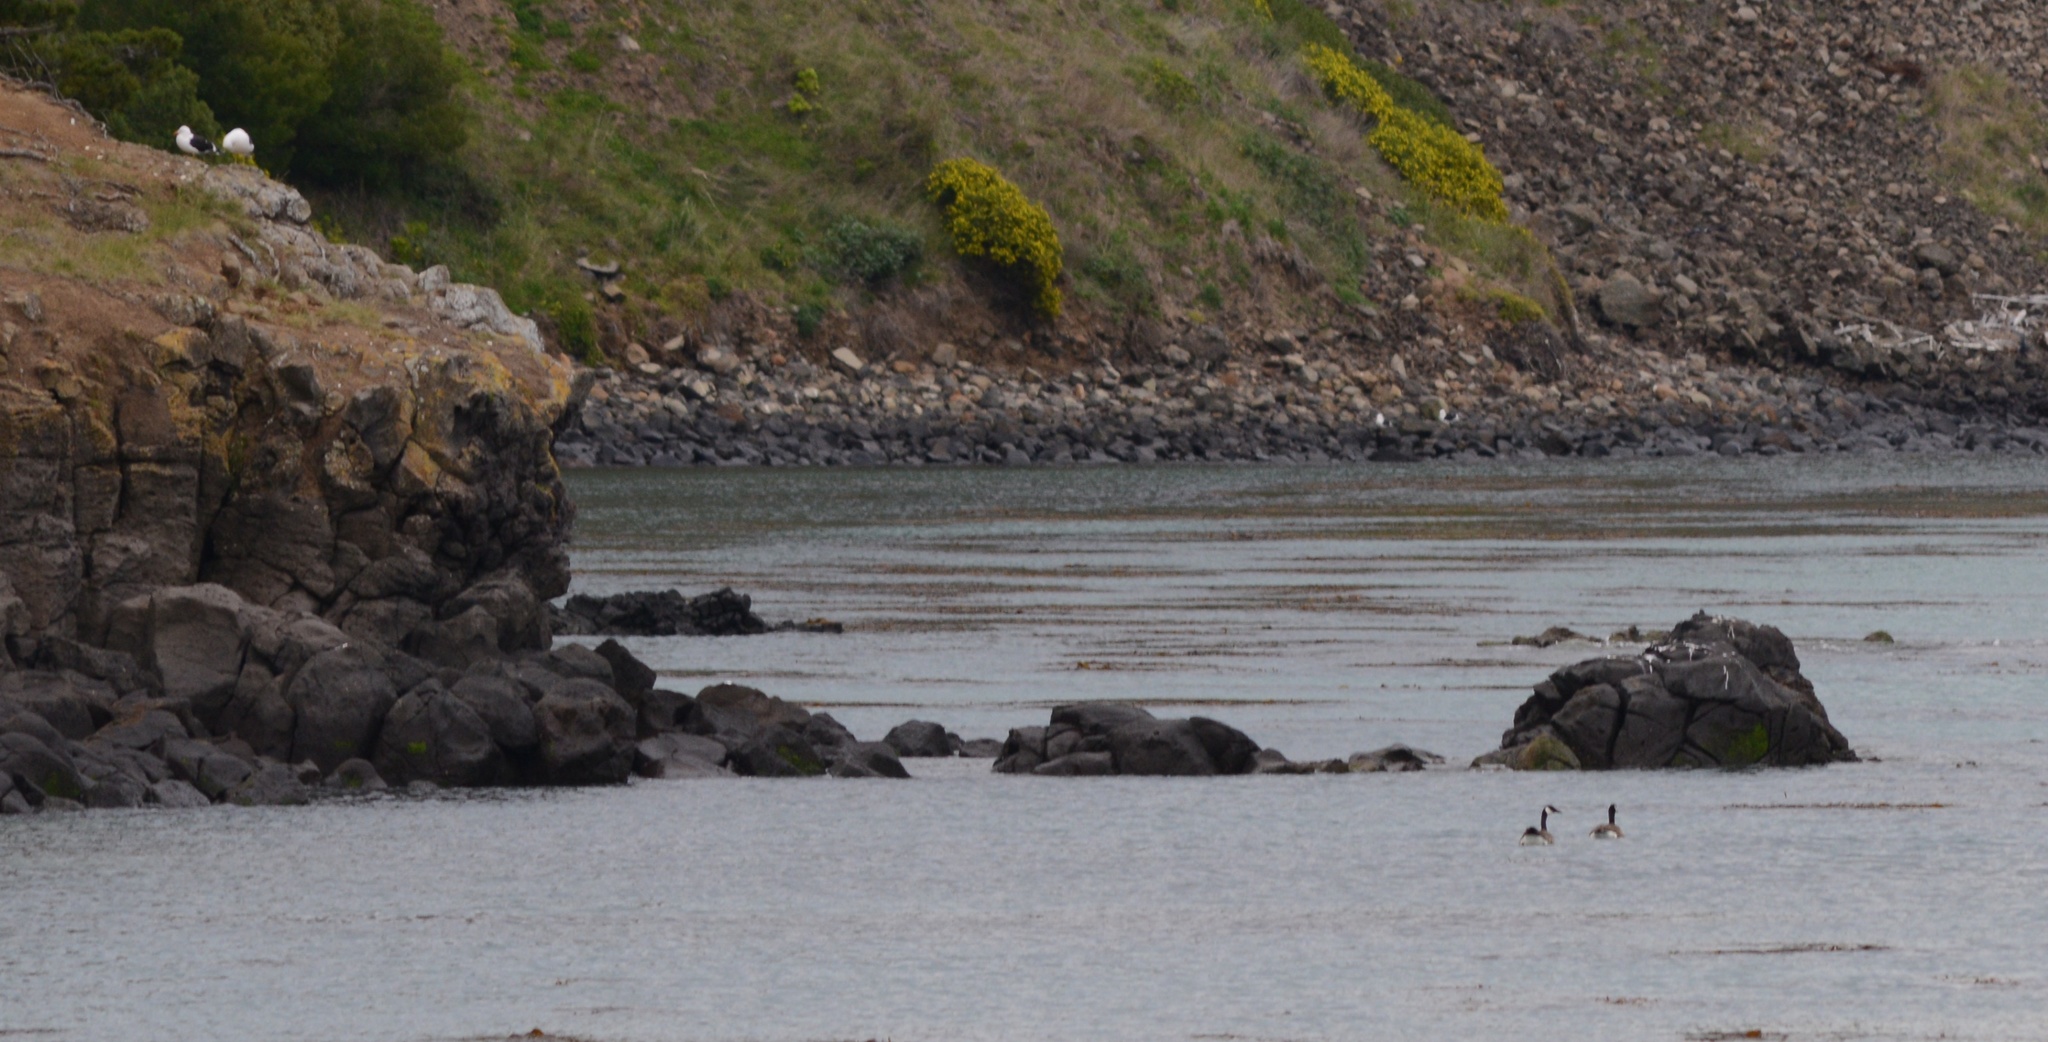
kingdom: Animalia
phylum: Chordata
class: Aves
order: Anseriformes
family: Anatidae
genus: Branta
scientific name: Branta canadensis
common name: Canada goose
